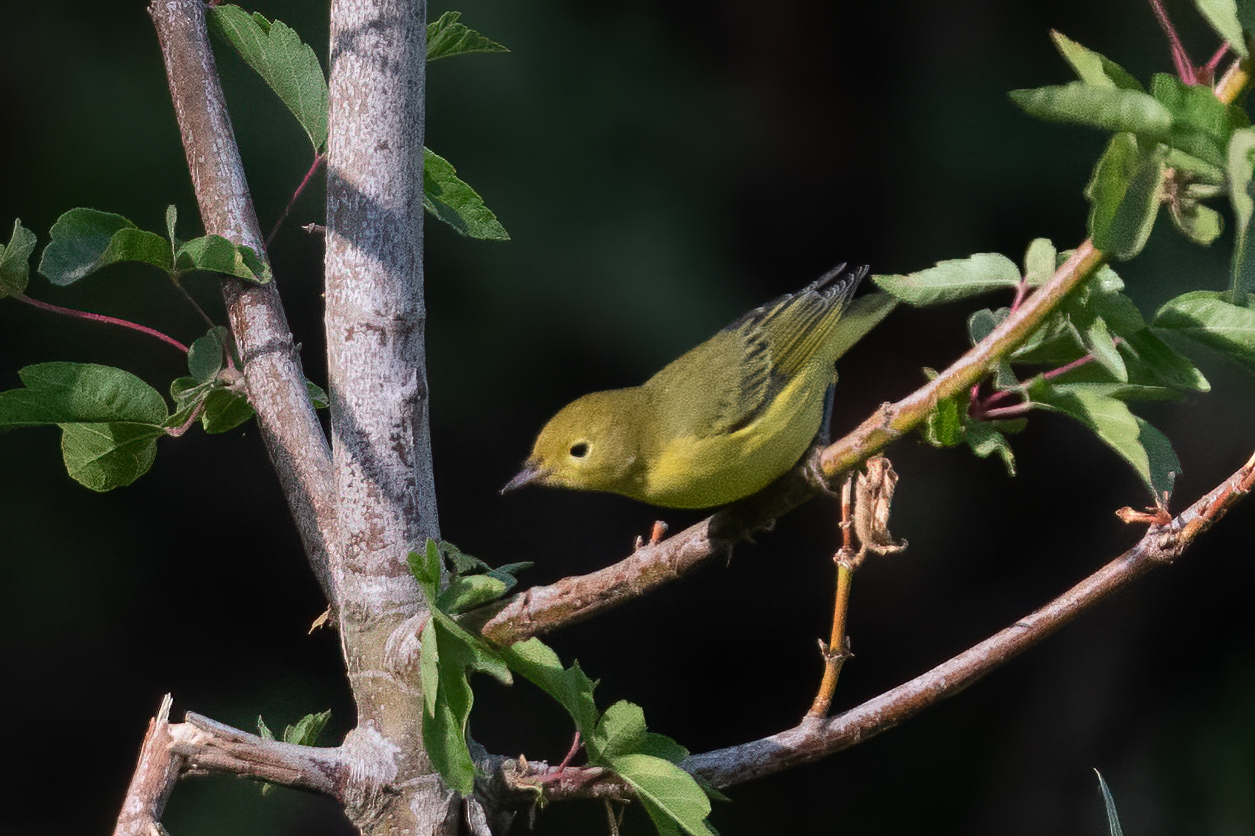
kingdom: Animalia
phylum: Chordata
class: Aves
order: Passeriformes
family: Parulidae
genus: Setophaga
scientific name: Setophaga petechia
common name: Yellow warbler
